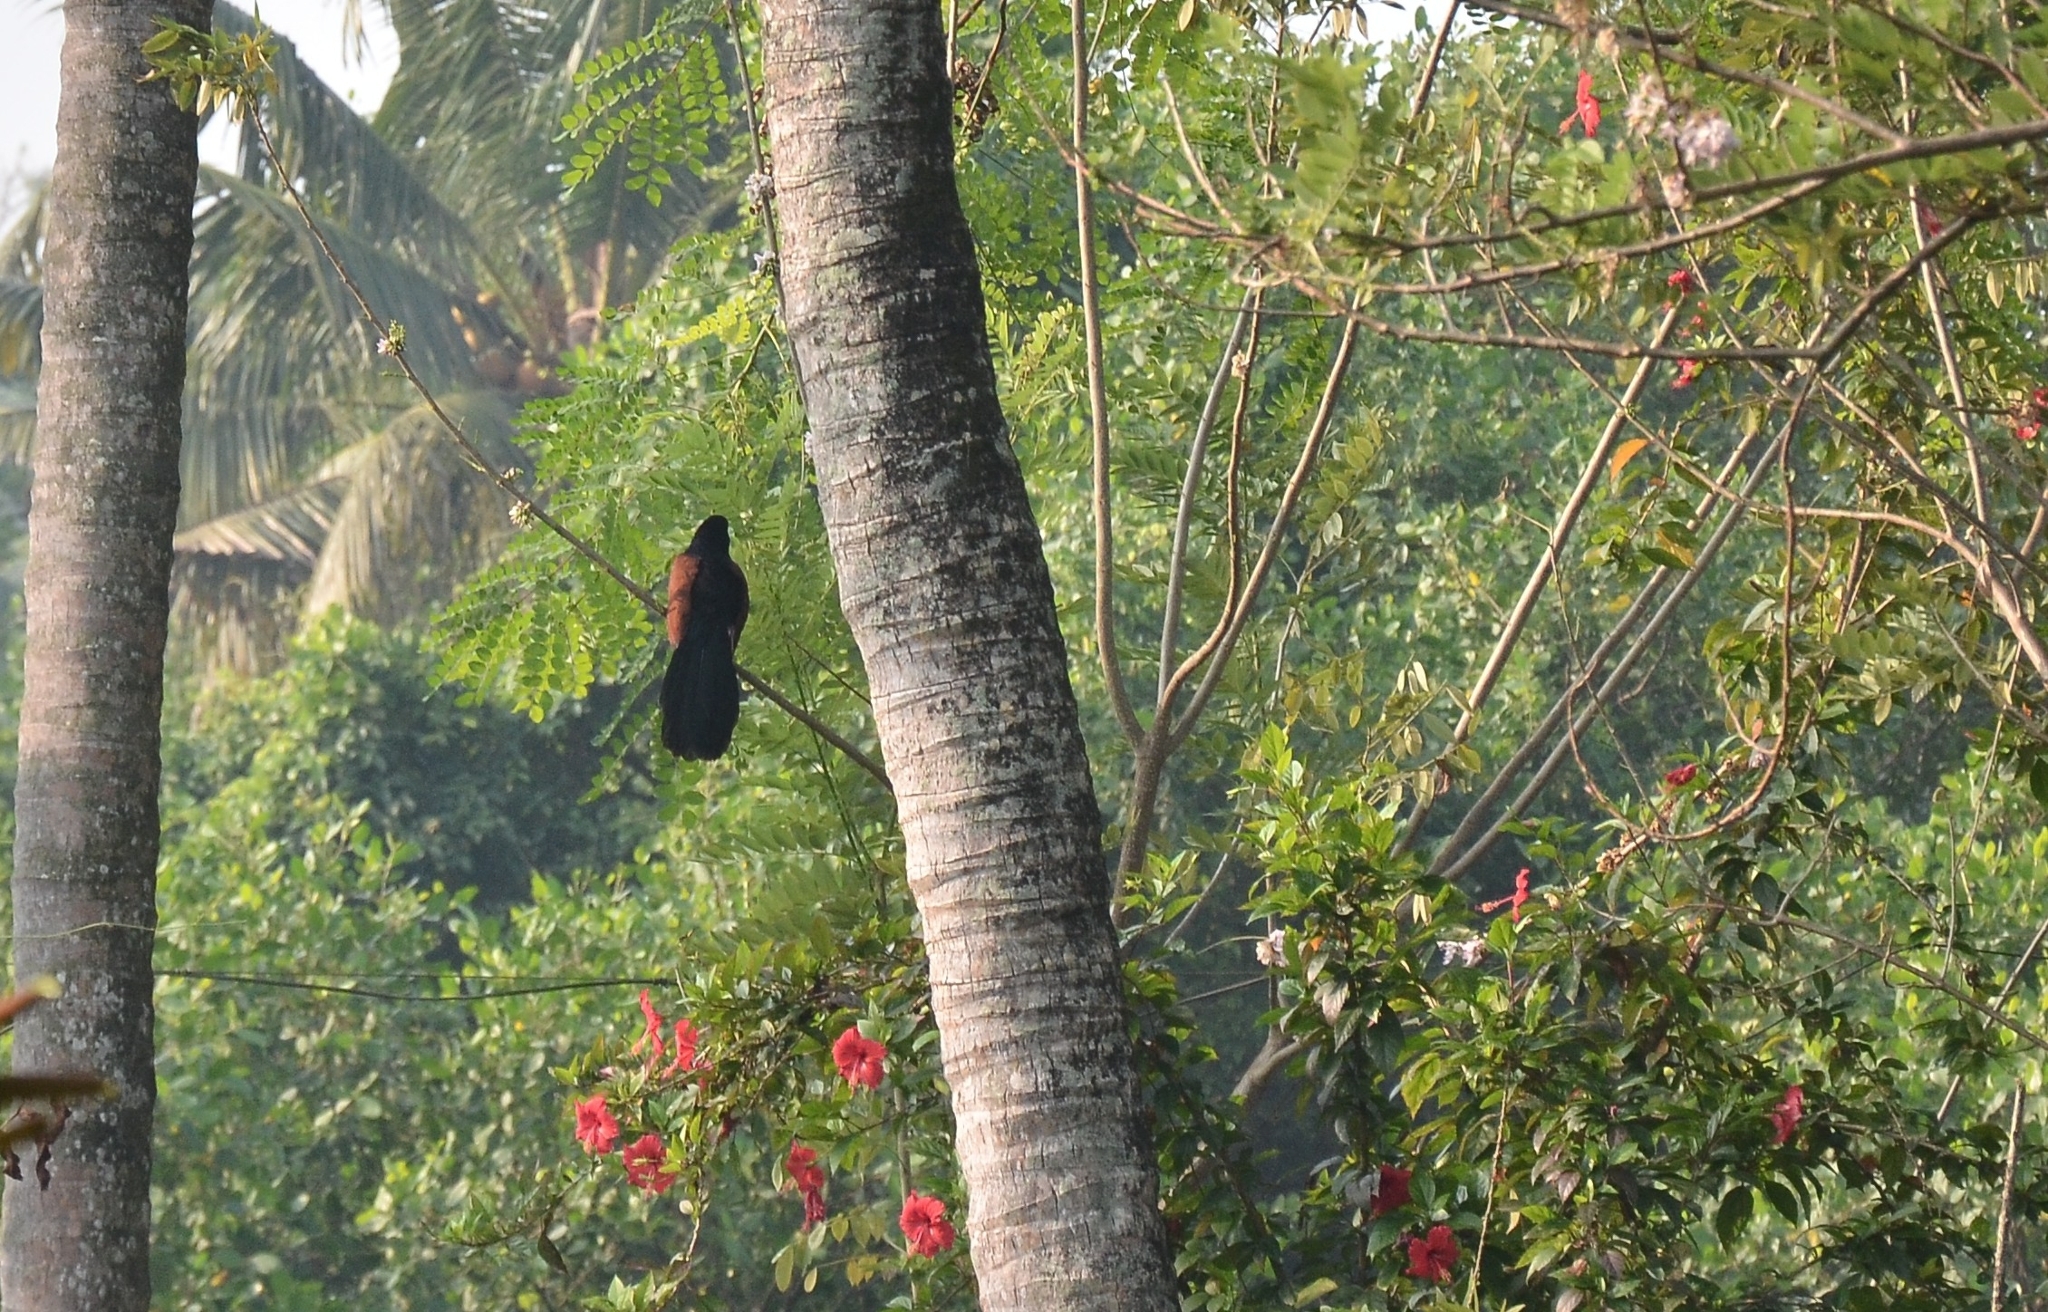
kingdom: Animalia
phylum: Chordata
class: Aves
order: Cuculiformes
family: Cuculidae
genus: Centropus
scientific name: Centropus sinensis
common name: Greater coucal
